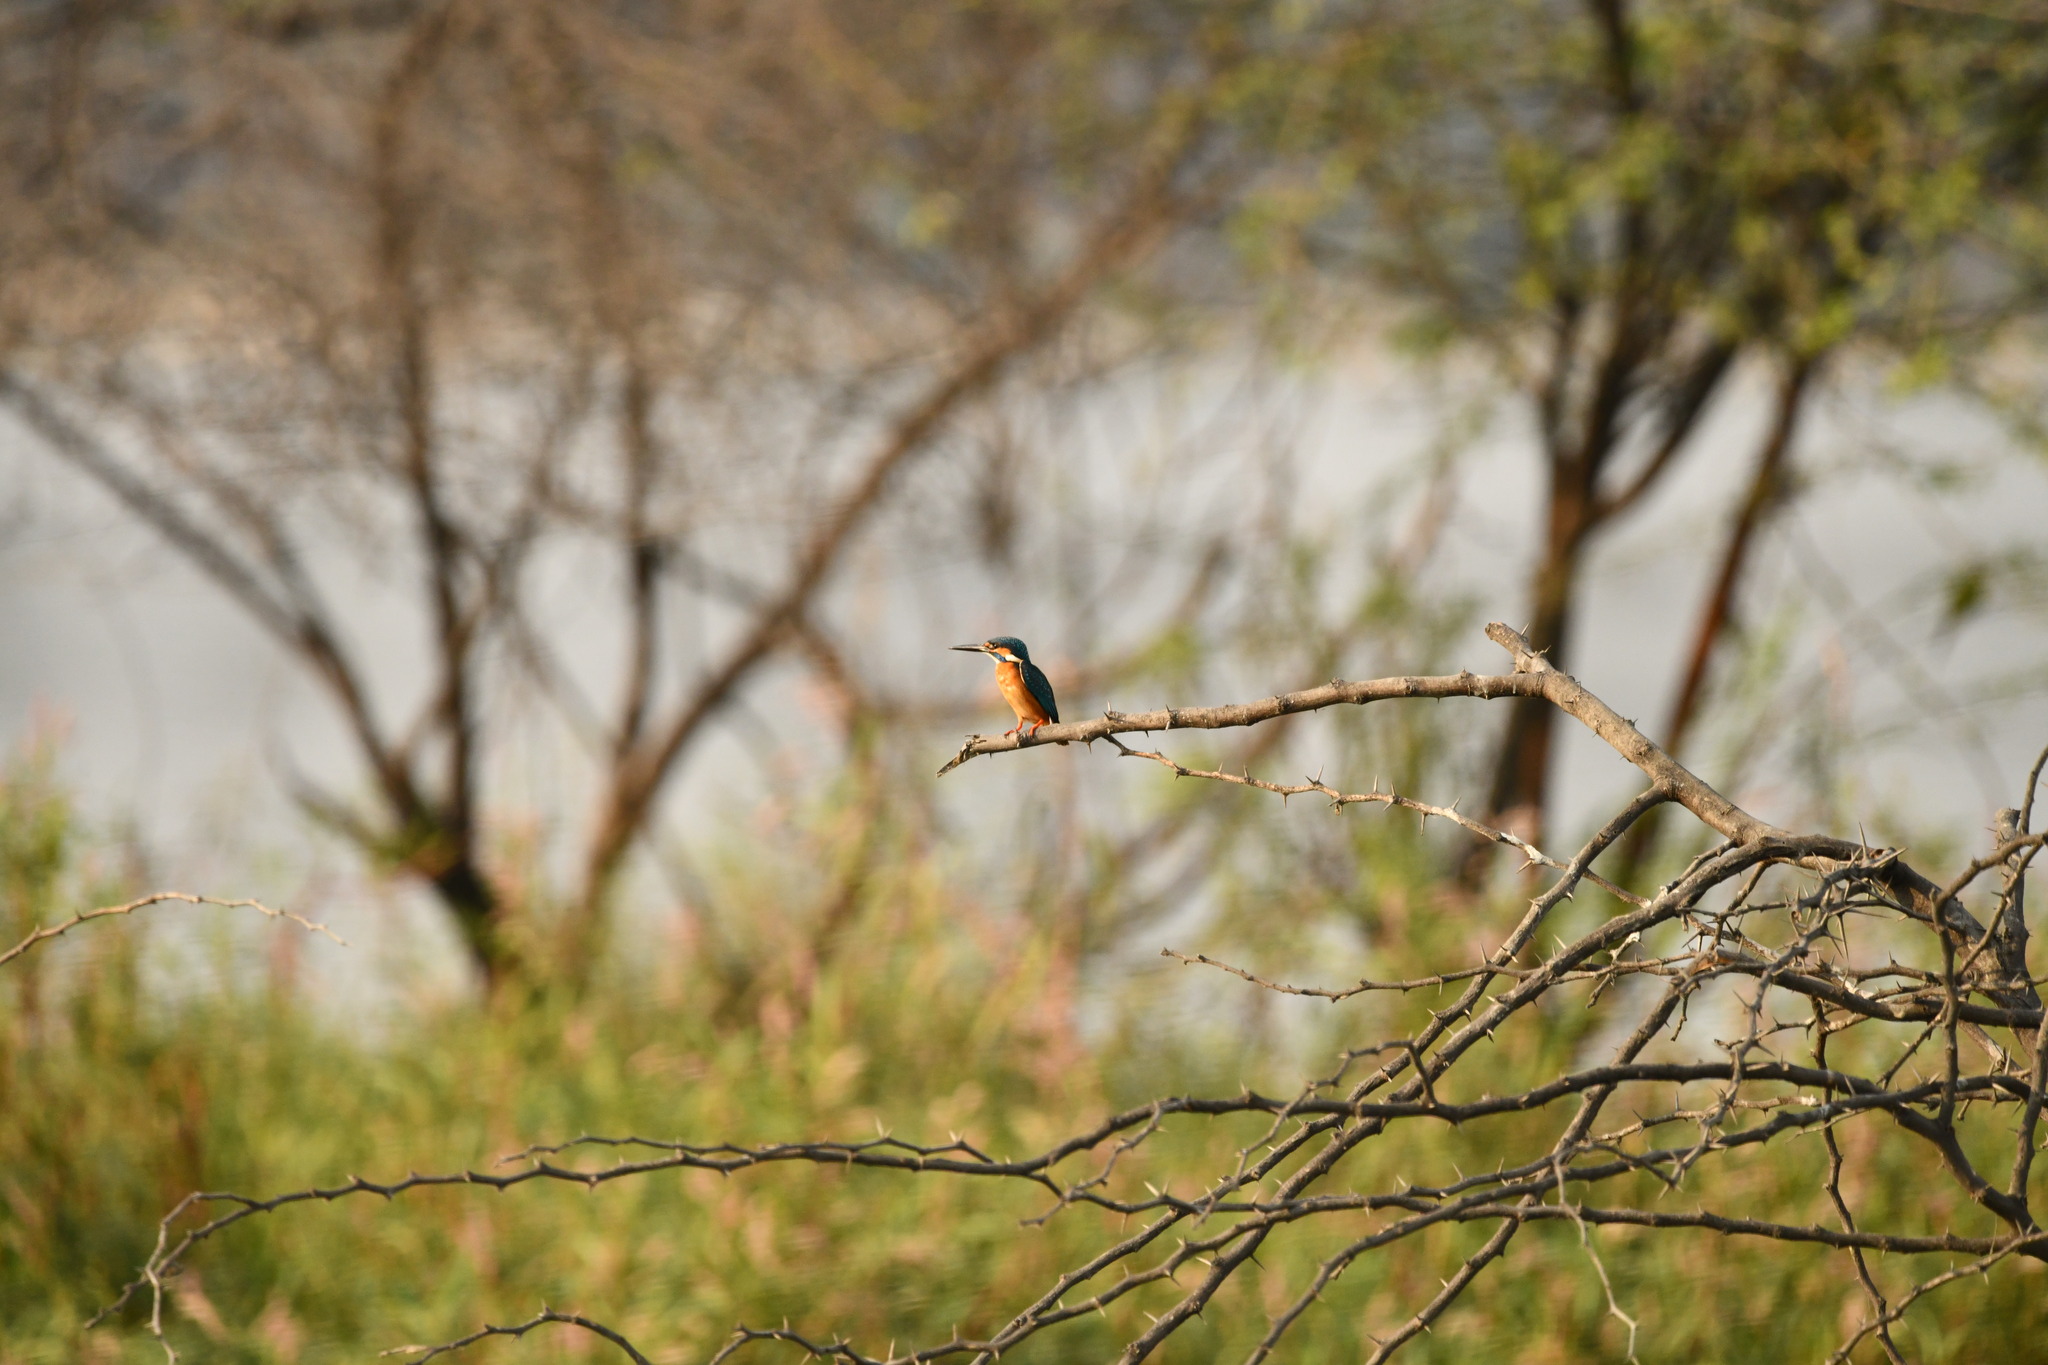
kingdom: Animalia
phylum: Chordata
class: Aves
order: Coraciiformes
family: Alcedinidae
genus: Alcedo
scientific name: Alcedo atthis
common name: Common kingfisher
